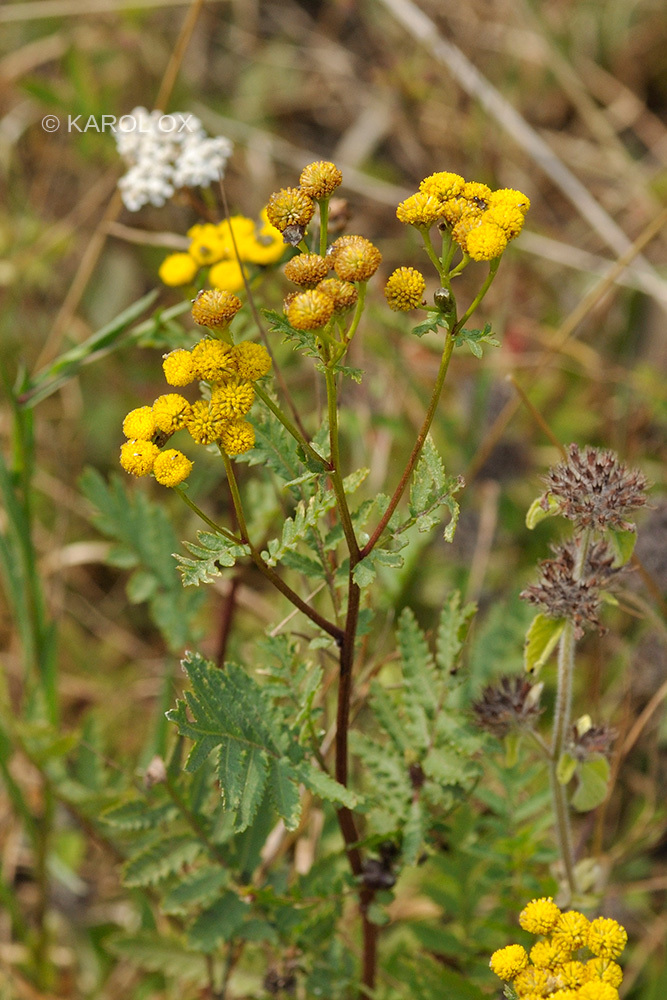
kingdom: Plantae
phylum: Tracheophyta
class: Magnoliopsida
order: Asterales
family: Asteraceae
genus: Tanacetum
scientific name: Tanacetum vulgare
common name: Common tansy
